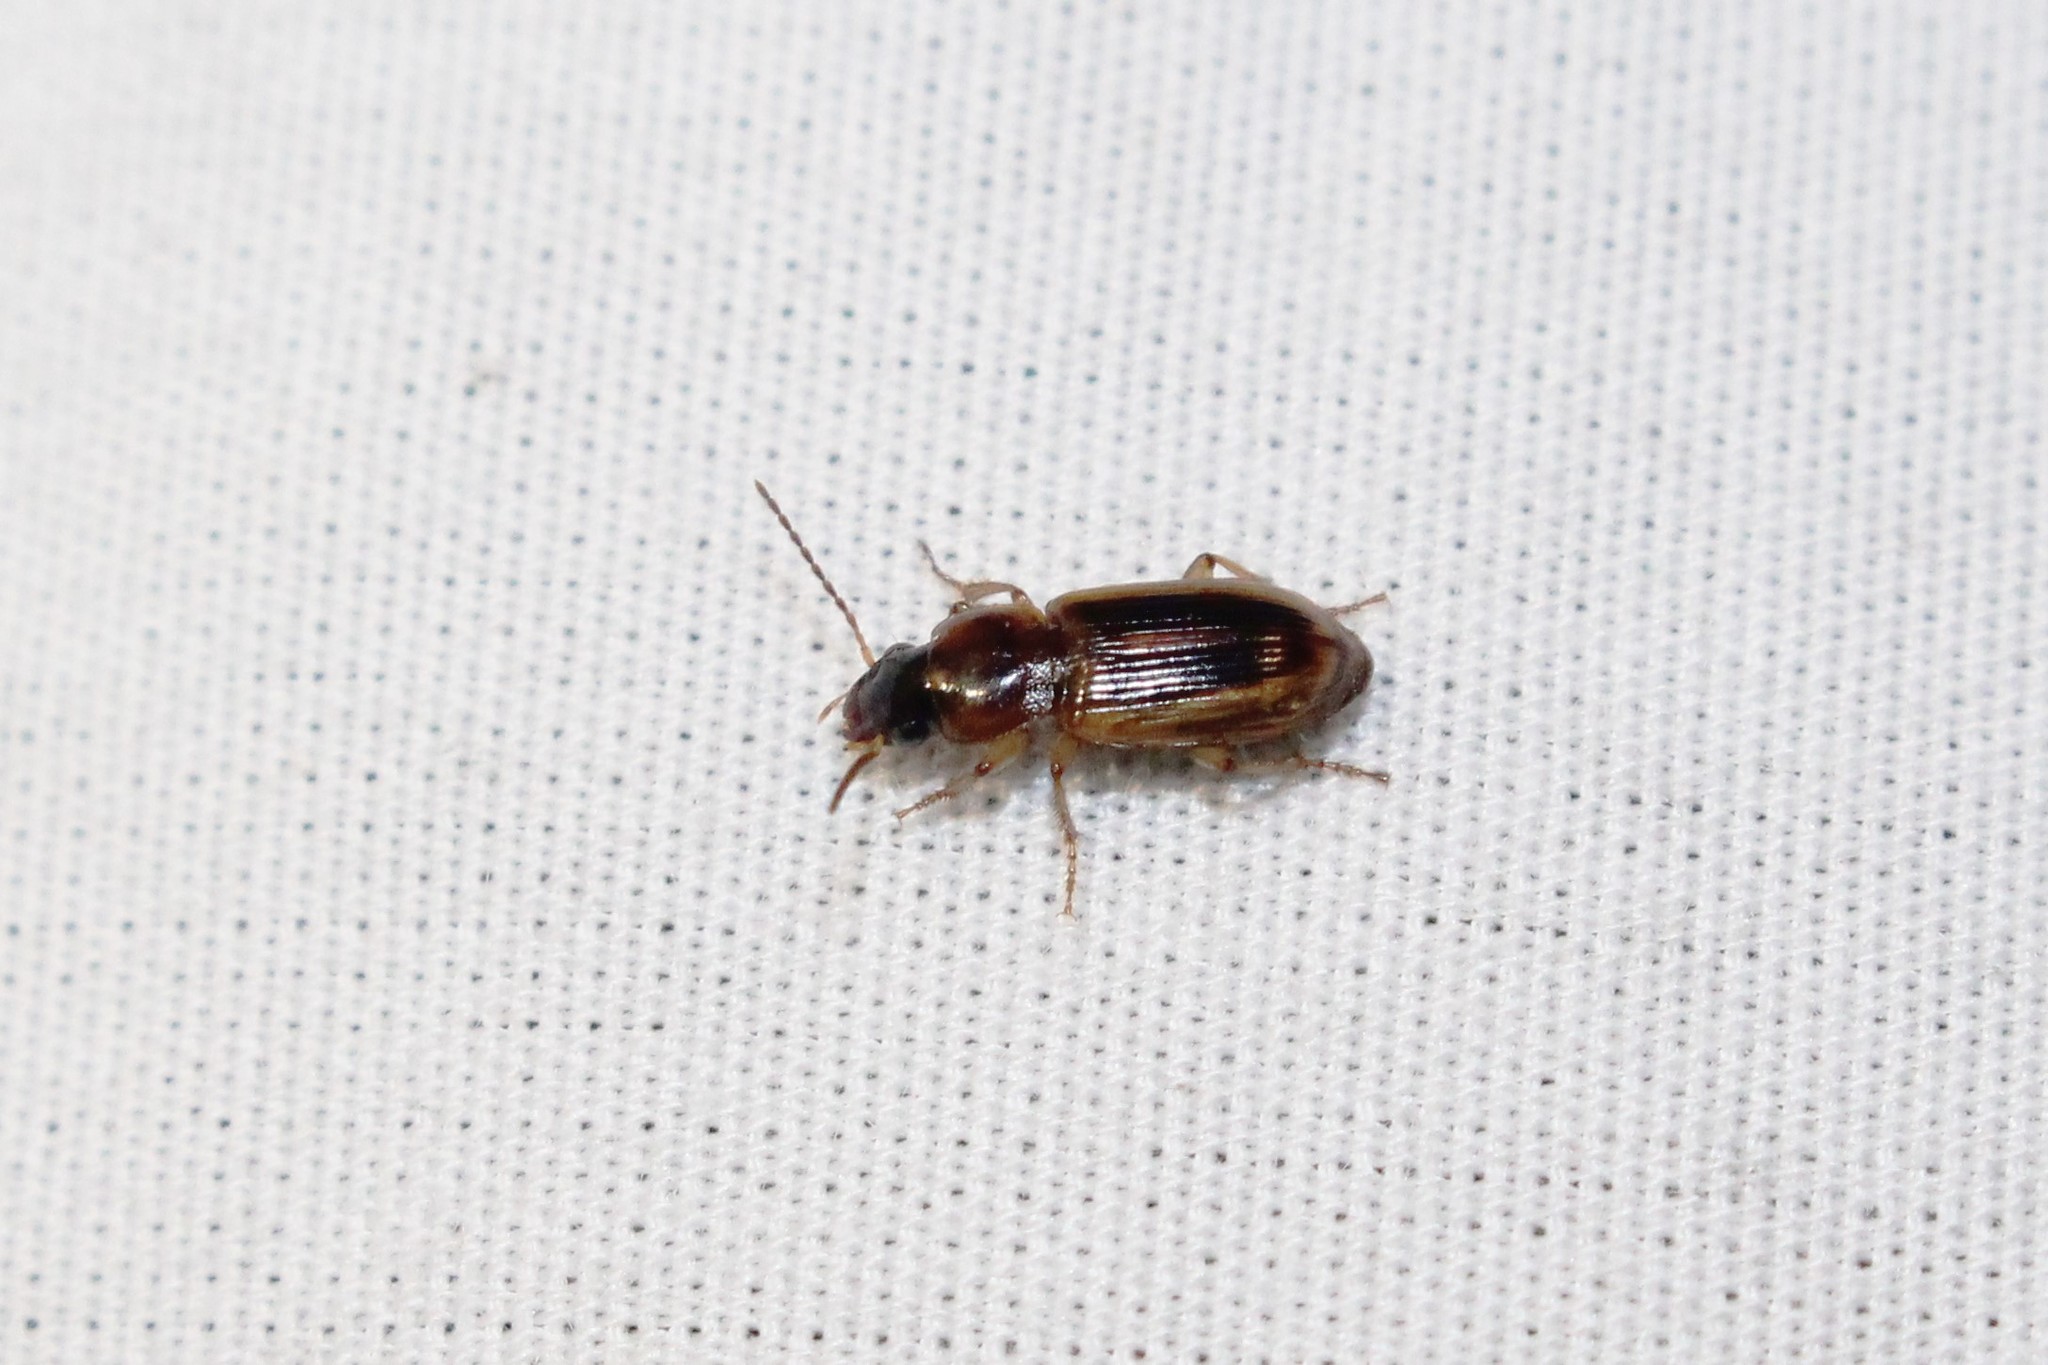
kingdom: Animalia
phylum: Arthropoda
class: Insecta
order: Coleoptera
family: Carabidae
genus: Stenolophus
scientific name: Stenolophus lecontei
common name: Leconte's seedcorn beetle
